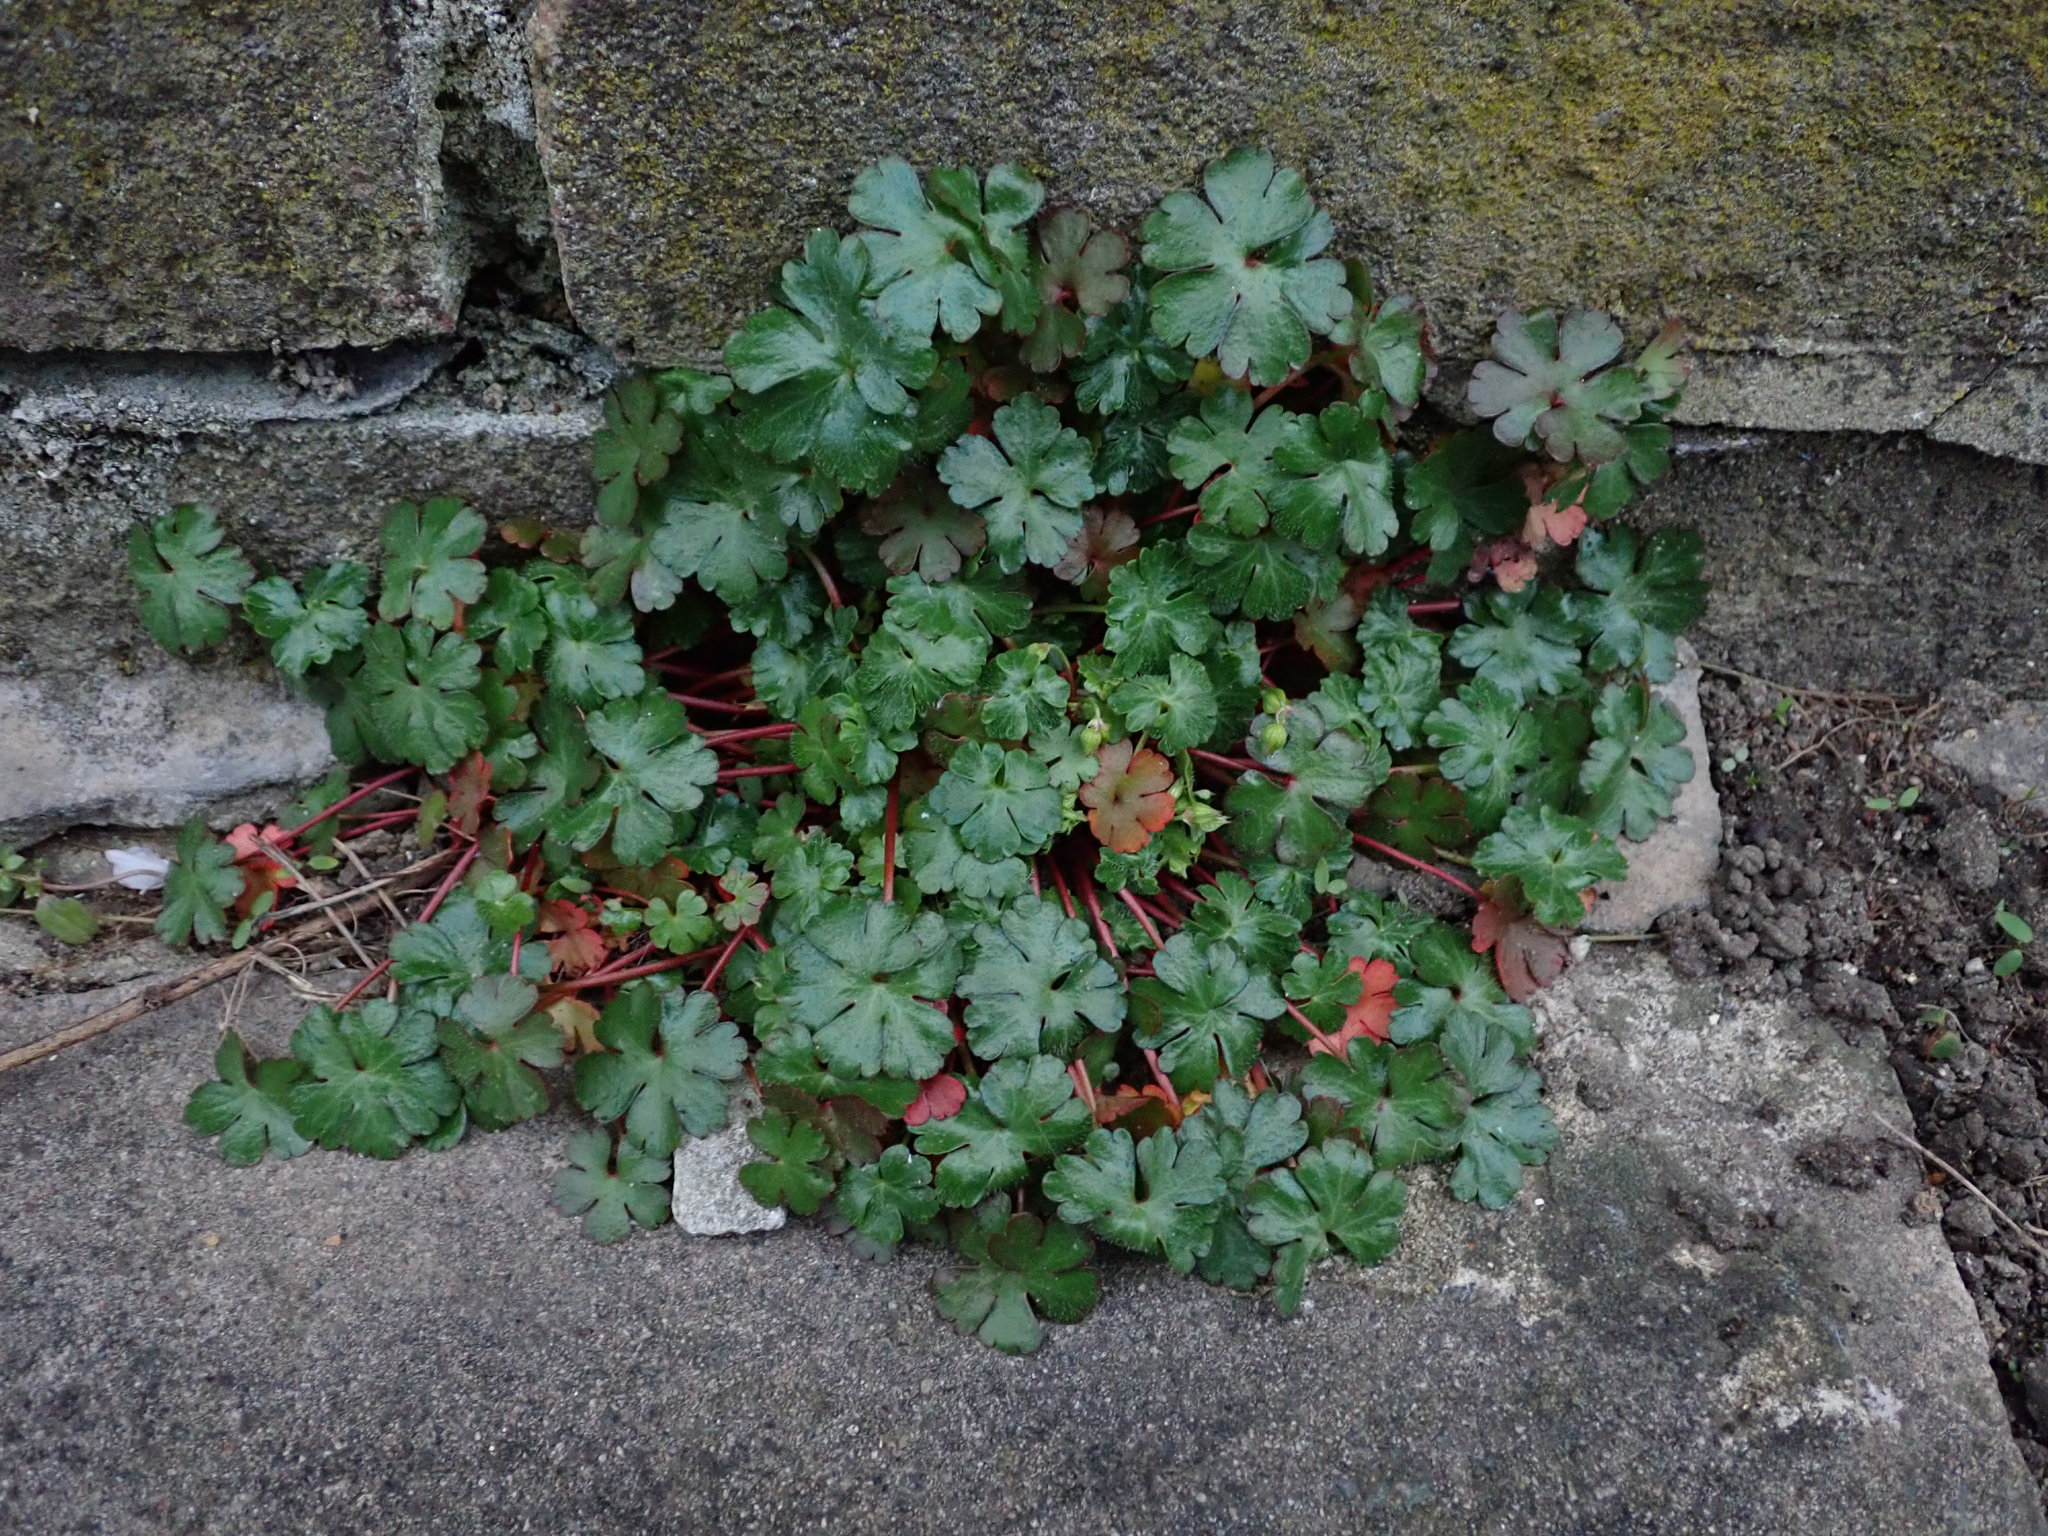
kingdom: Plantae
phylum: Tracheophyta
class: Magnoliopsida
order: Geraniales
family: Geraniaceae
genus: Geranium
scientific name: Geranium lucidum
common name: Shining crane's-bill
